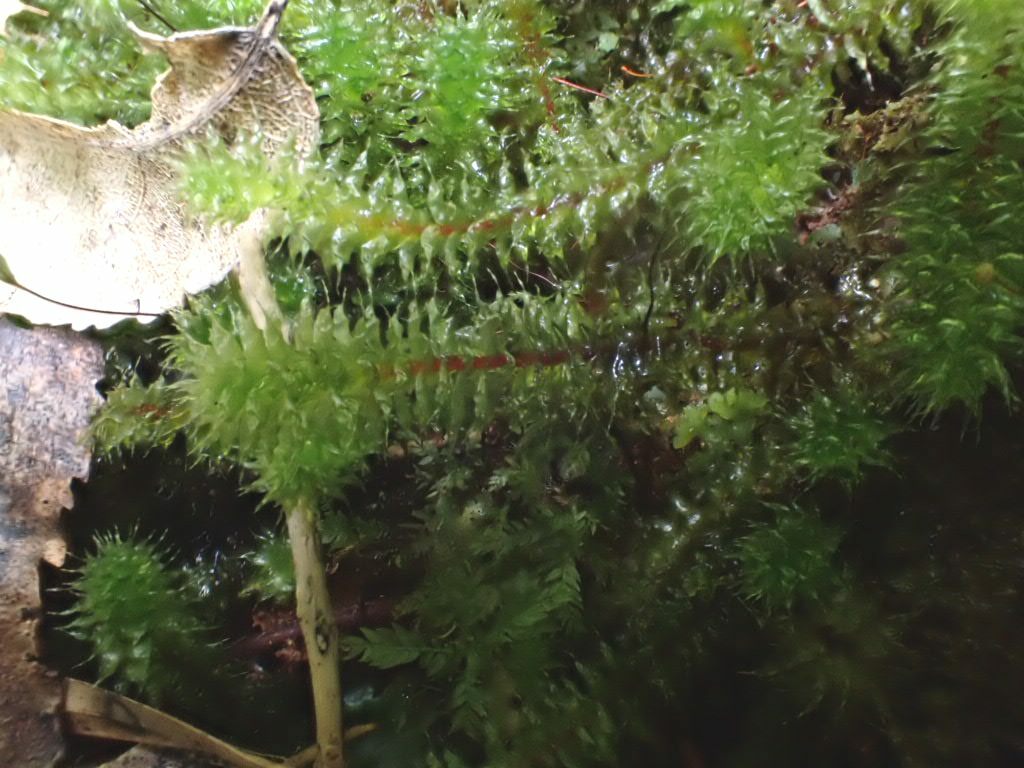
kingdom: Plantae
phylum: Bryophyta
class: Bryopsida
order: Ptychomniales
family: Ptychomniaceae
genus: Ptychomnion
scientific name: Ptychomnion aciculare
